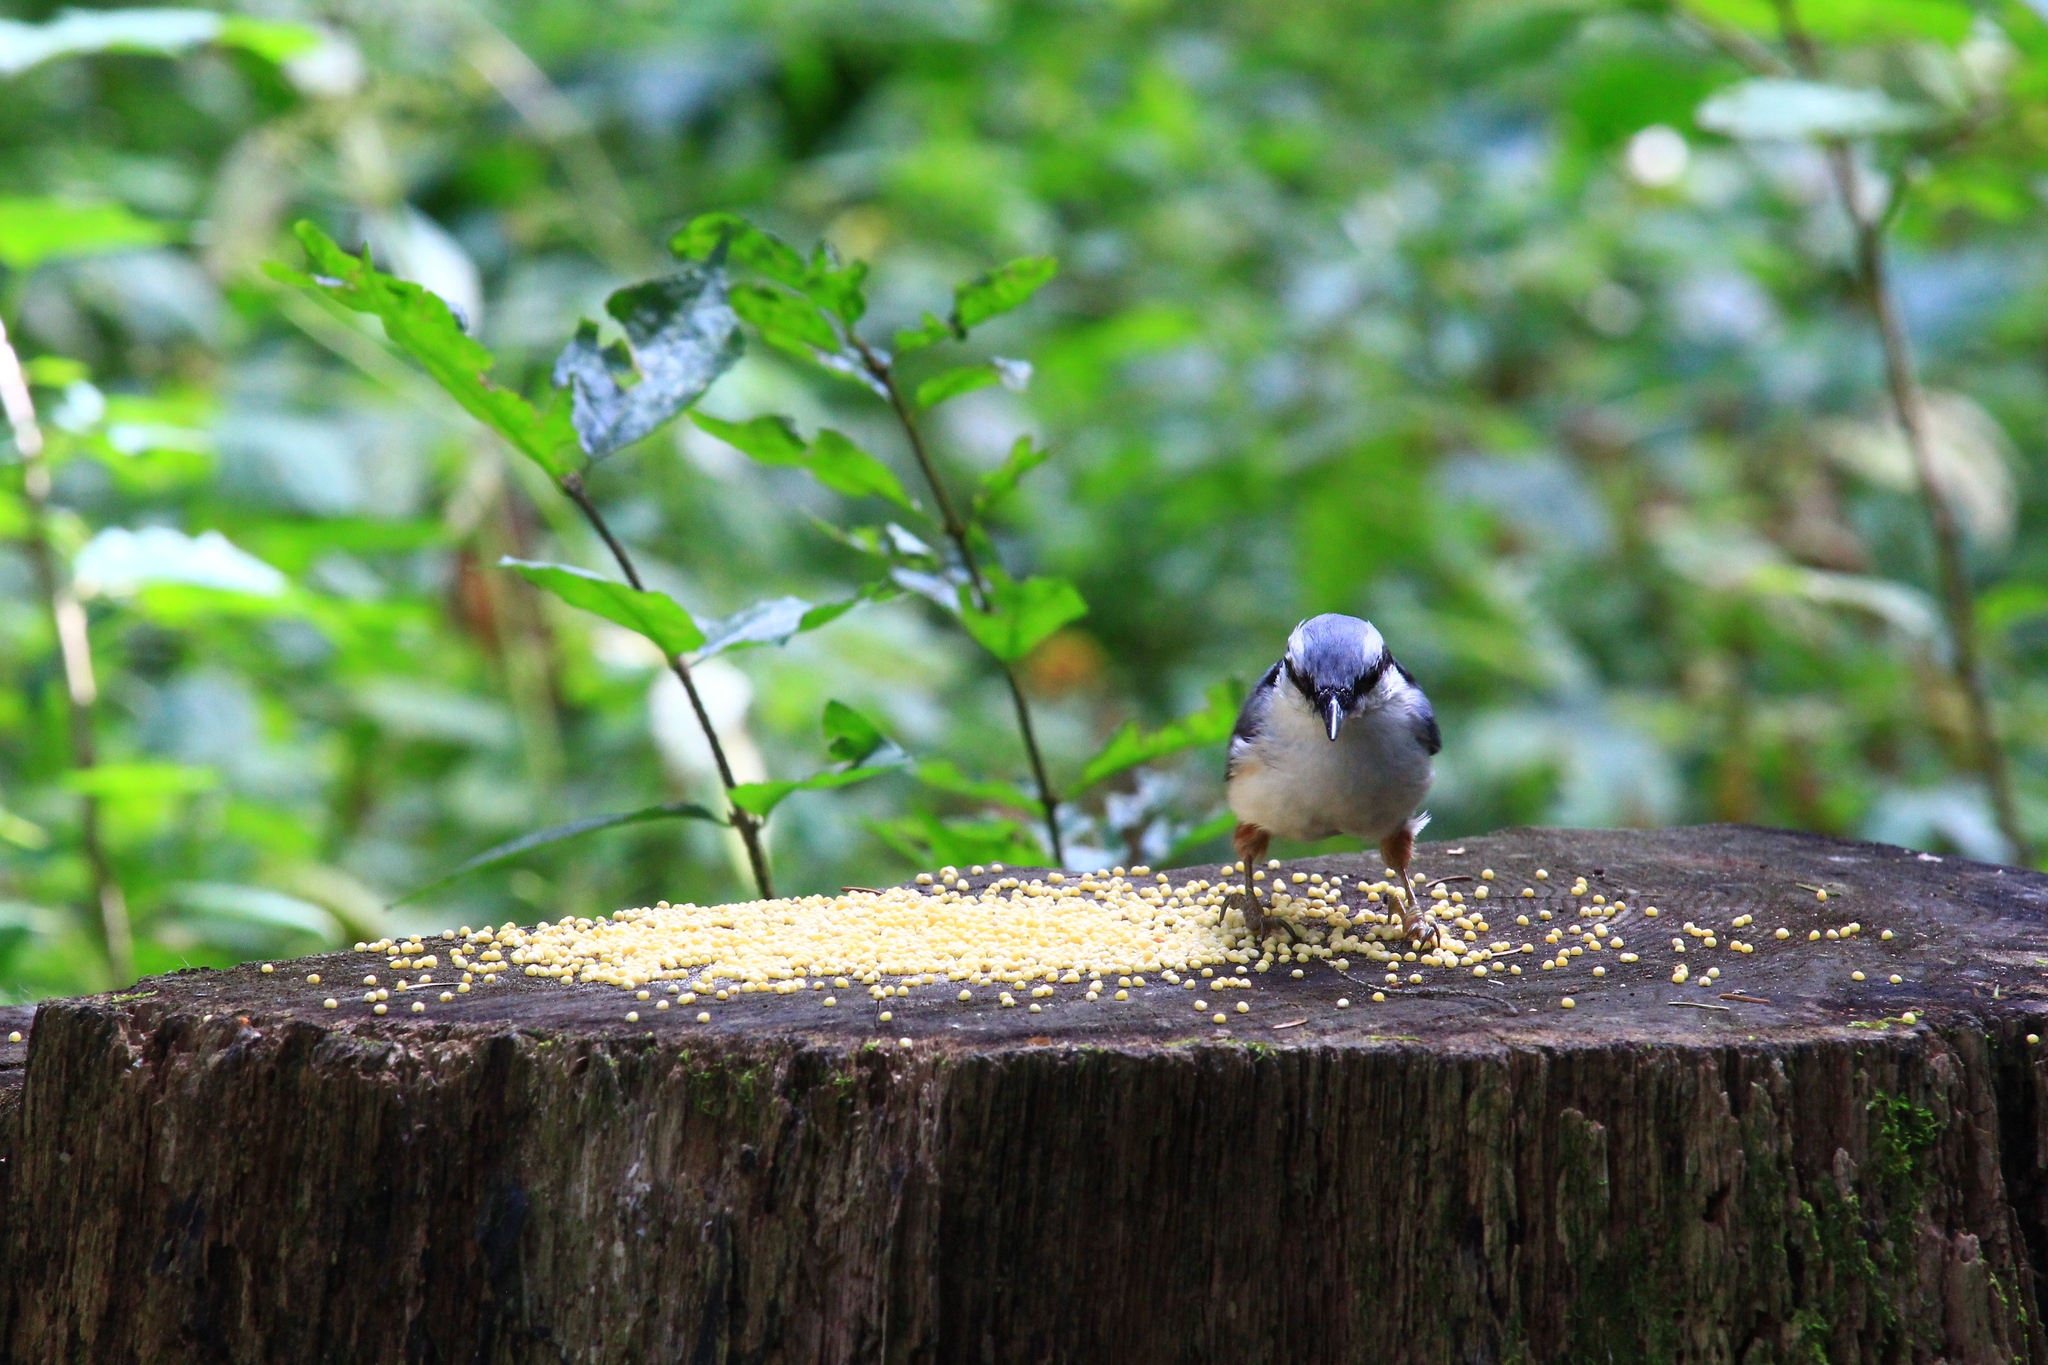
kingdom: Animalia
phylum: Chordata
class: Aves
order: Passeriformes
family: Sittidae
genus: Sitta
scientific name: Sitta europaea
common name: Eurasian nuthatch
